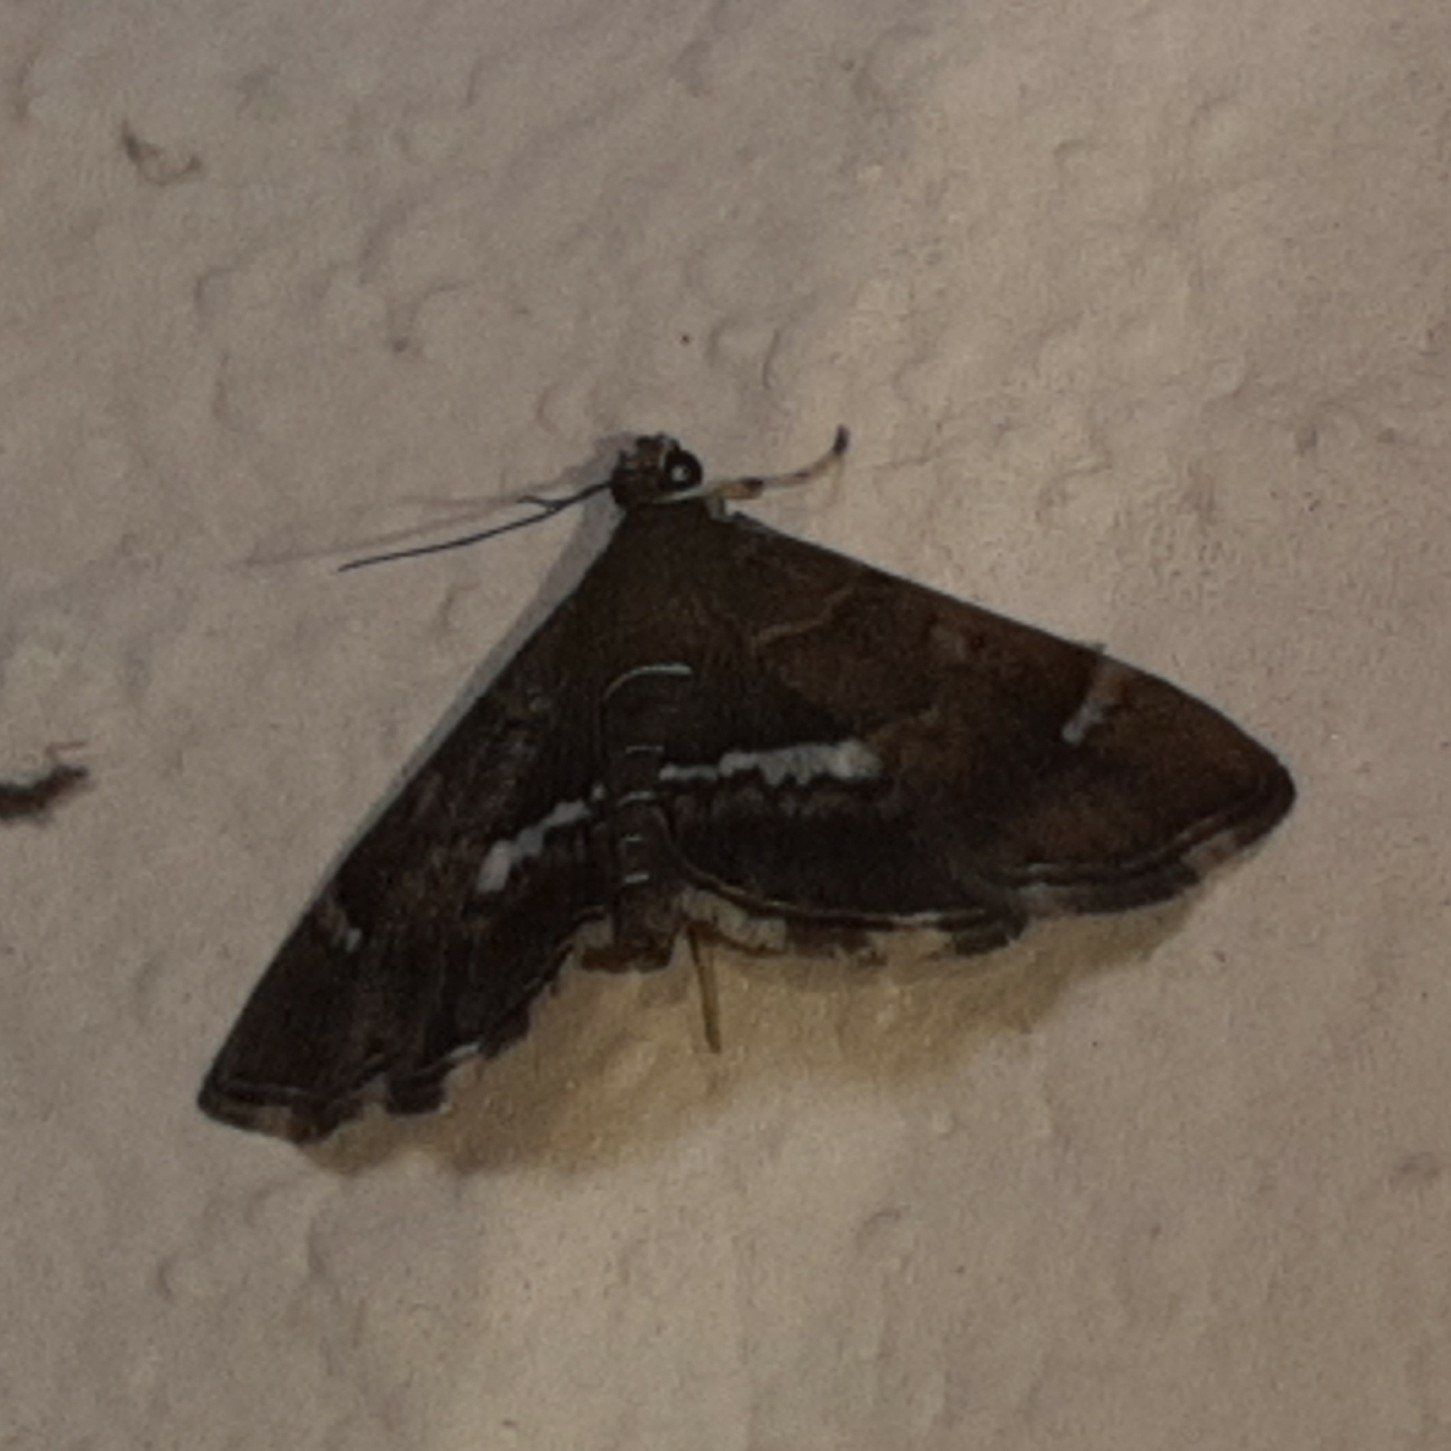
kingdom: Animalia
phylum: Arthropoda
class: Insecta
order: Lepidoptera
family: Crambidae
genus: Hymenia
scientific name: Hymenia perspectalis
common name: Spotted beet webworm
